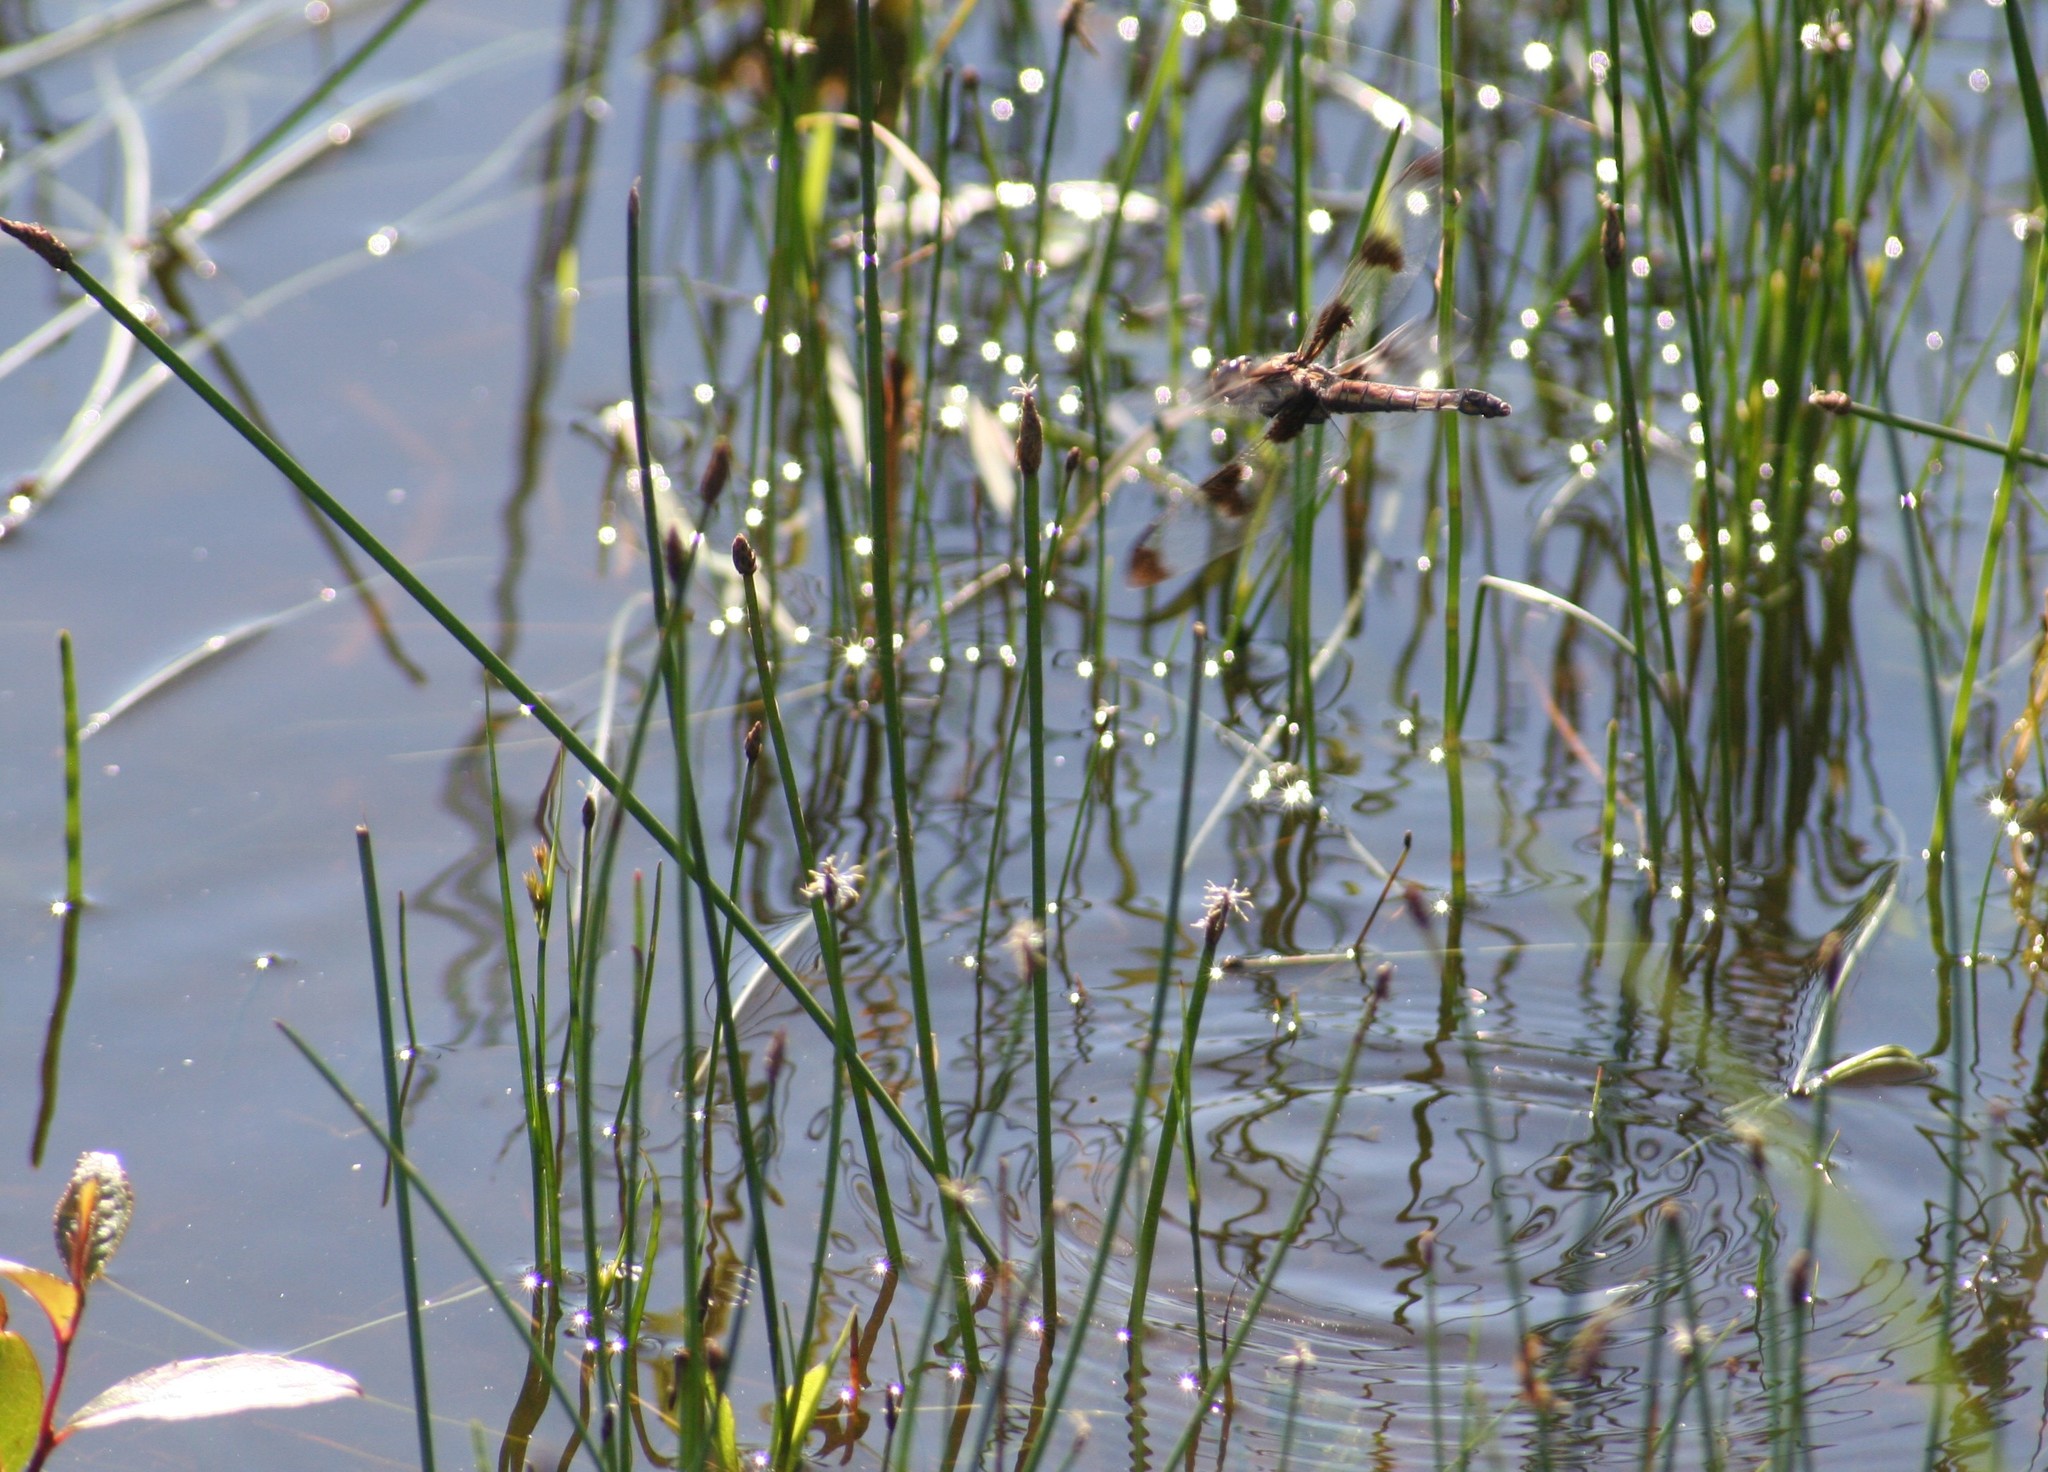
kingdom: Animalia
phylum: Arthropoda
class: Insecta
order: Odonata
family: Libellulidae
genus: Libellula
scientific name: Libellula pulchella
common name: Twelve-spotted skimmer
